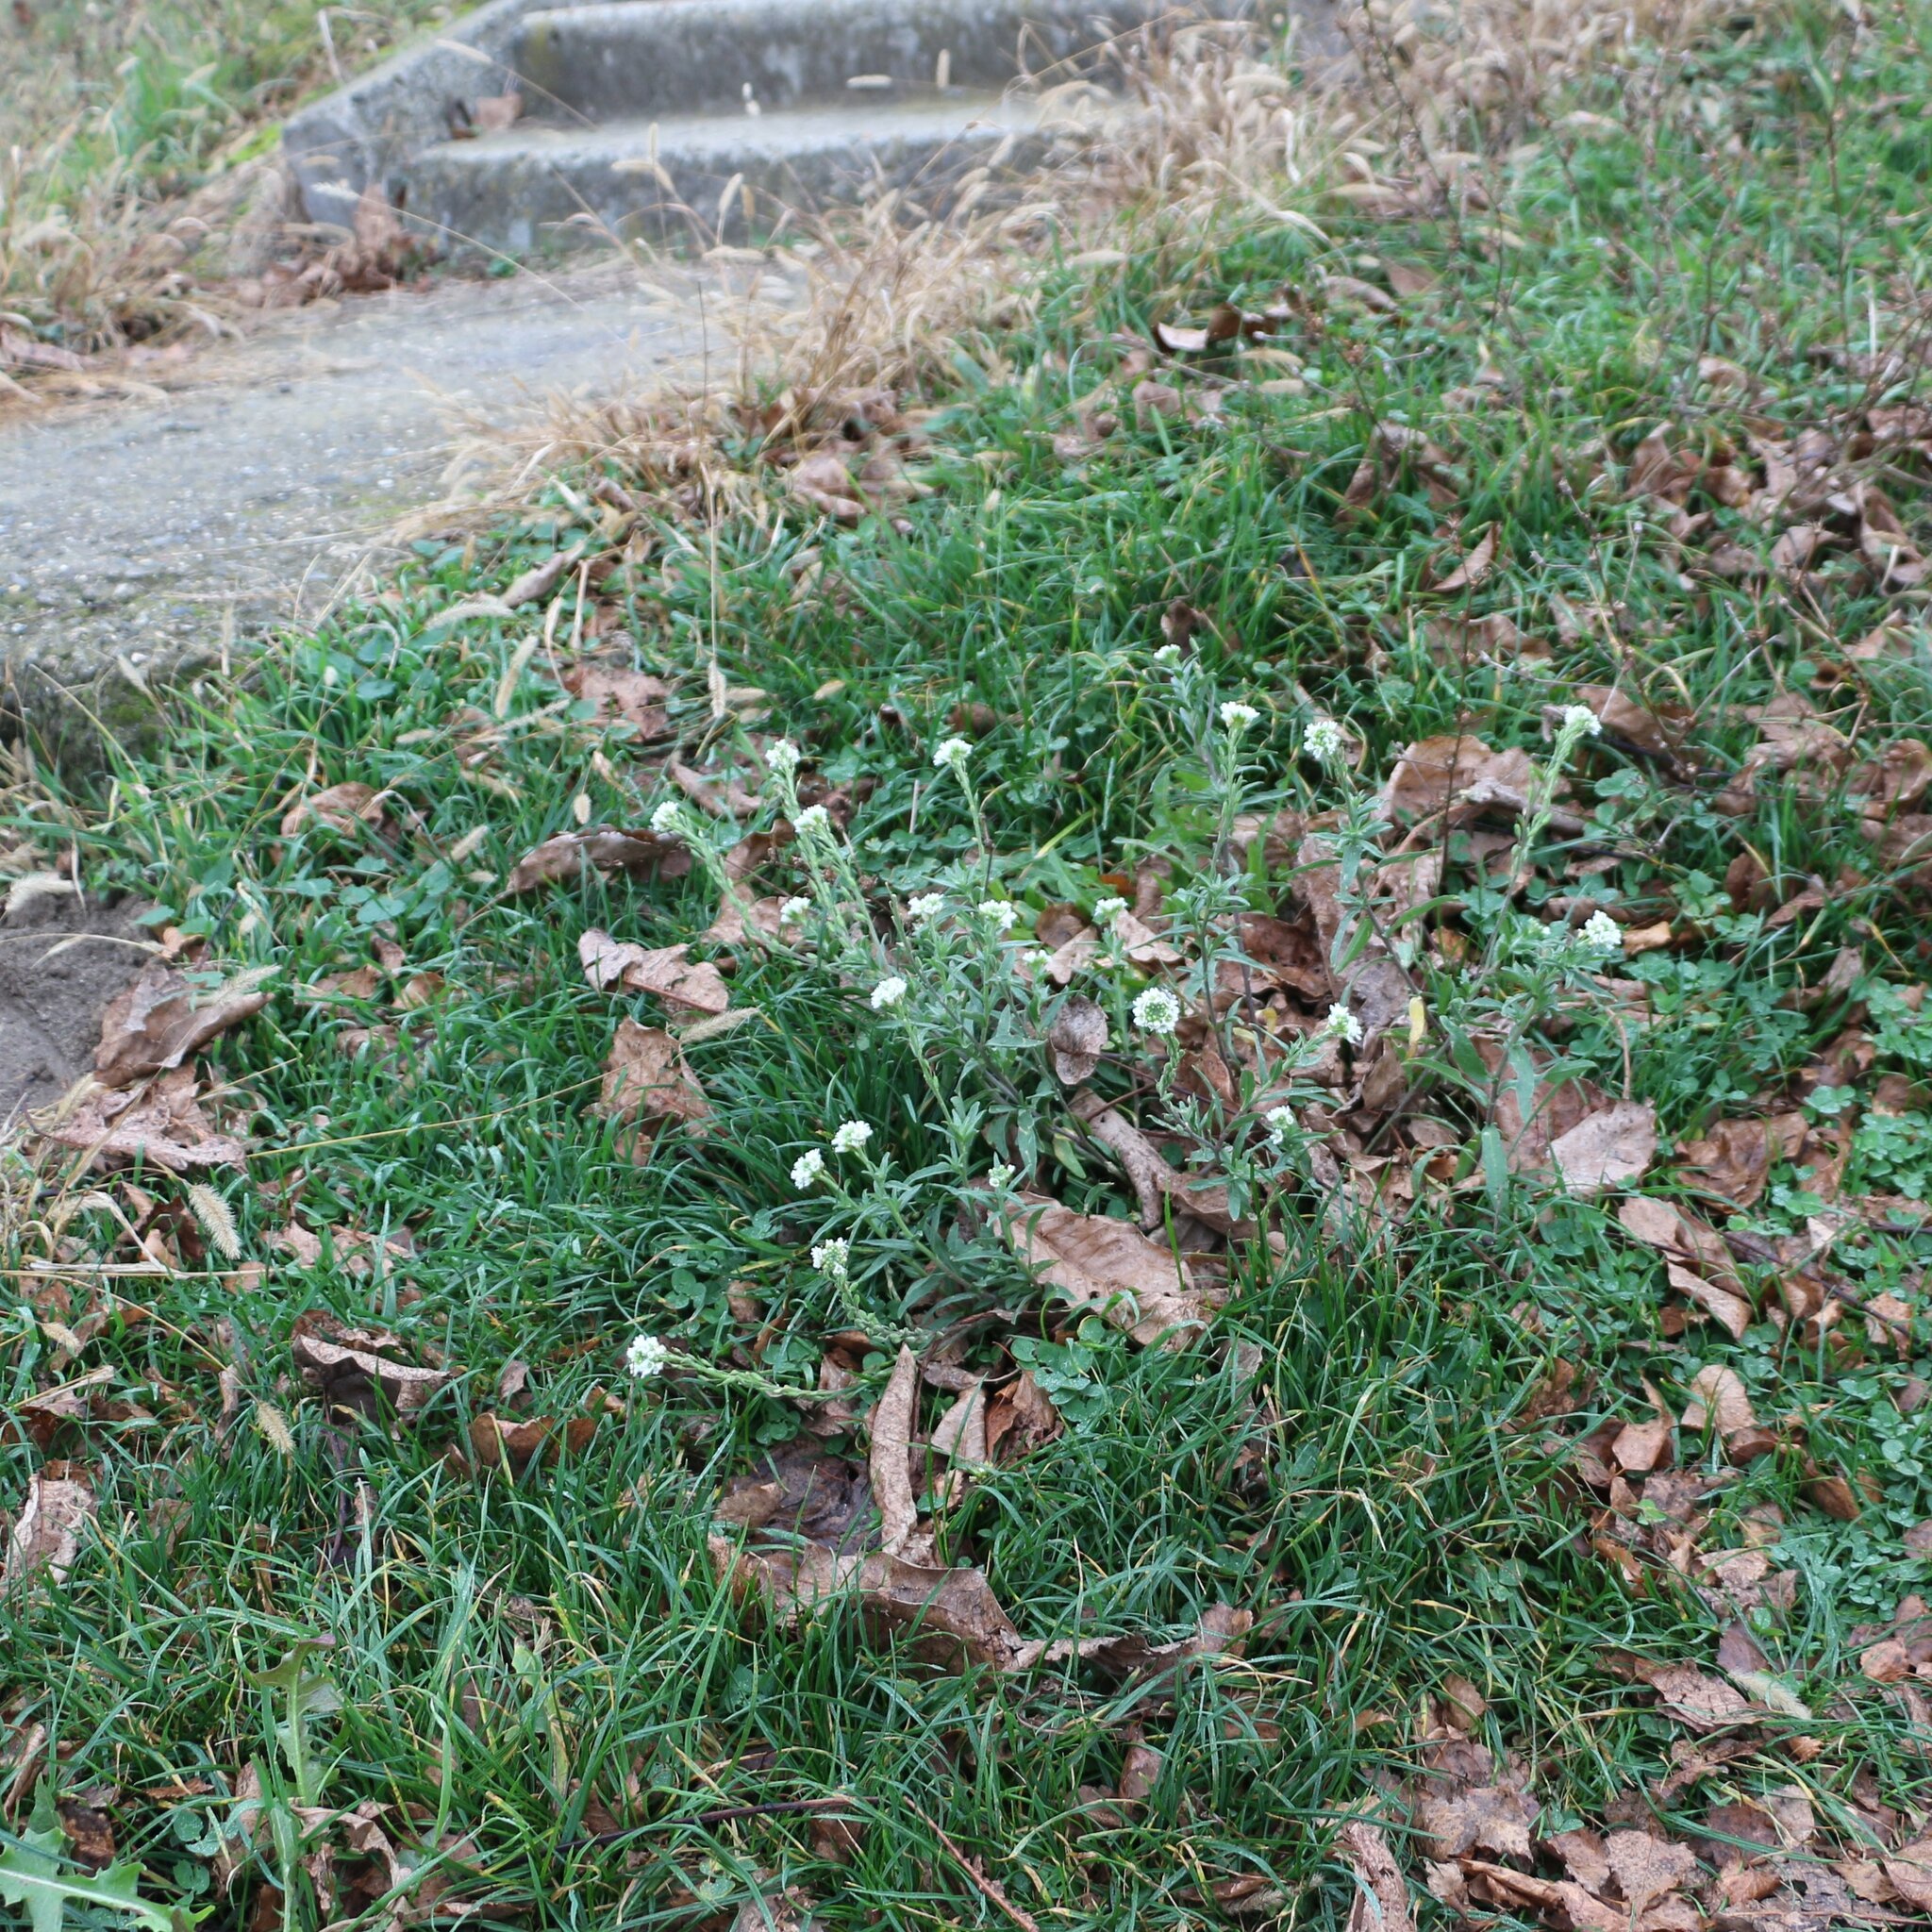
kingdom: Plantae
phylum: Tracheophyta
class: Magnoliopsida
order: Brassicales
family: Brassicaceae
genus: Berteroa
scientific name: Berteroa incana
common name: Hoary alison
